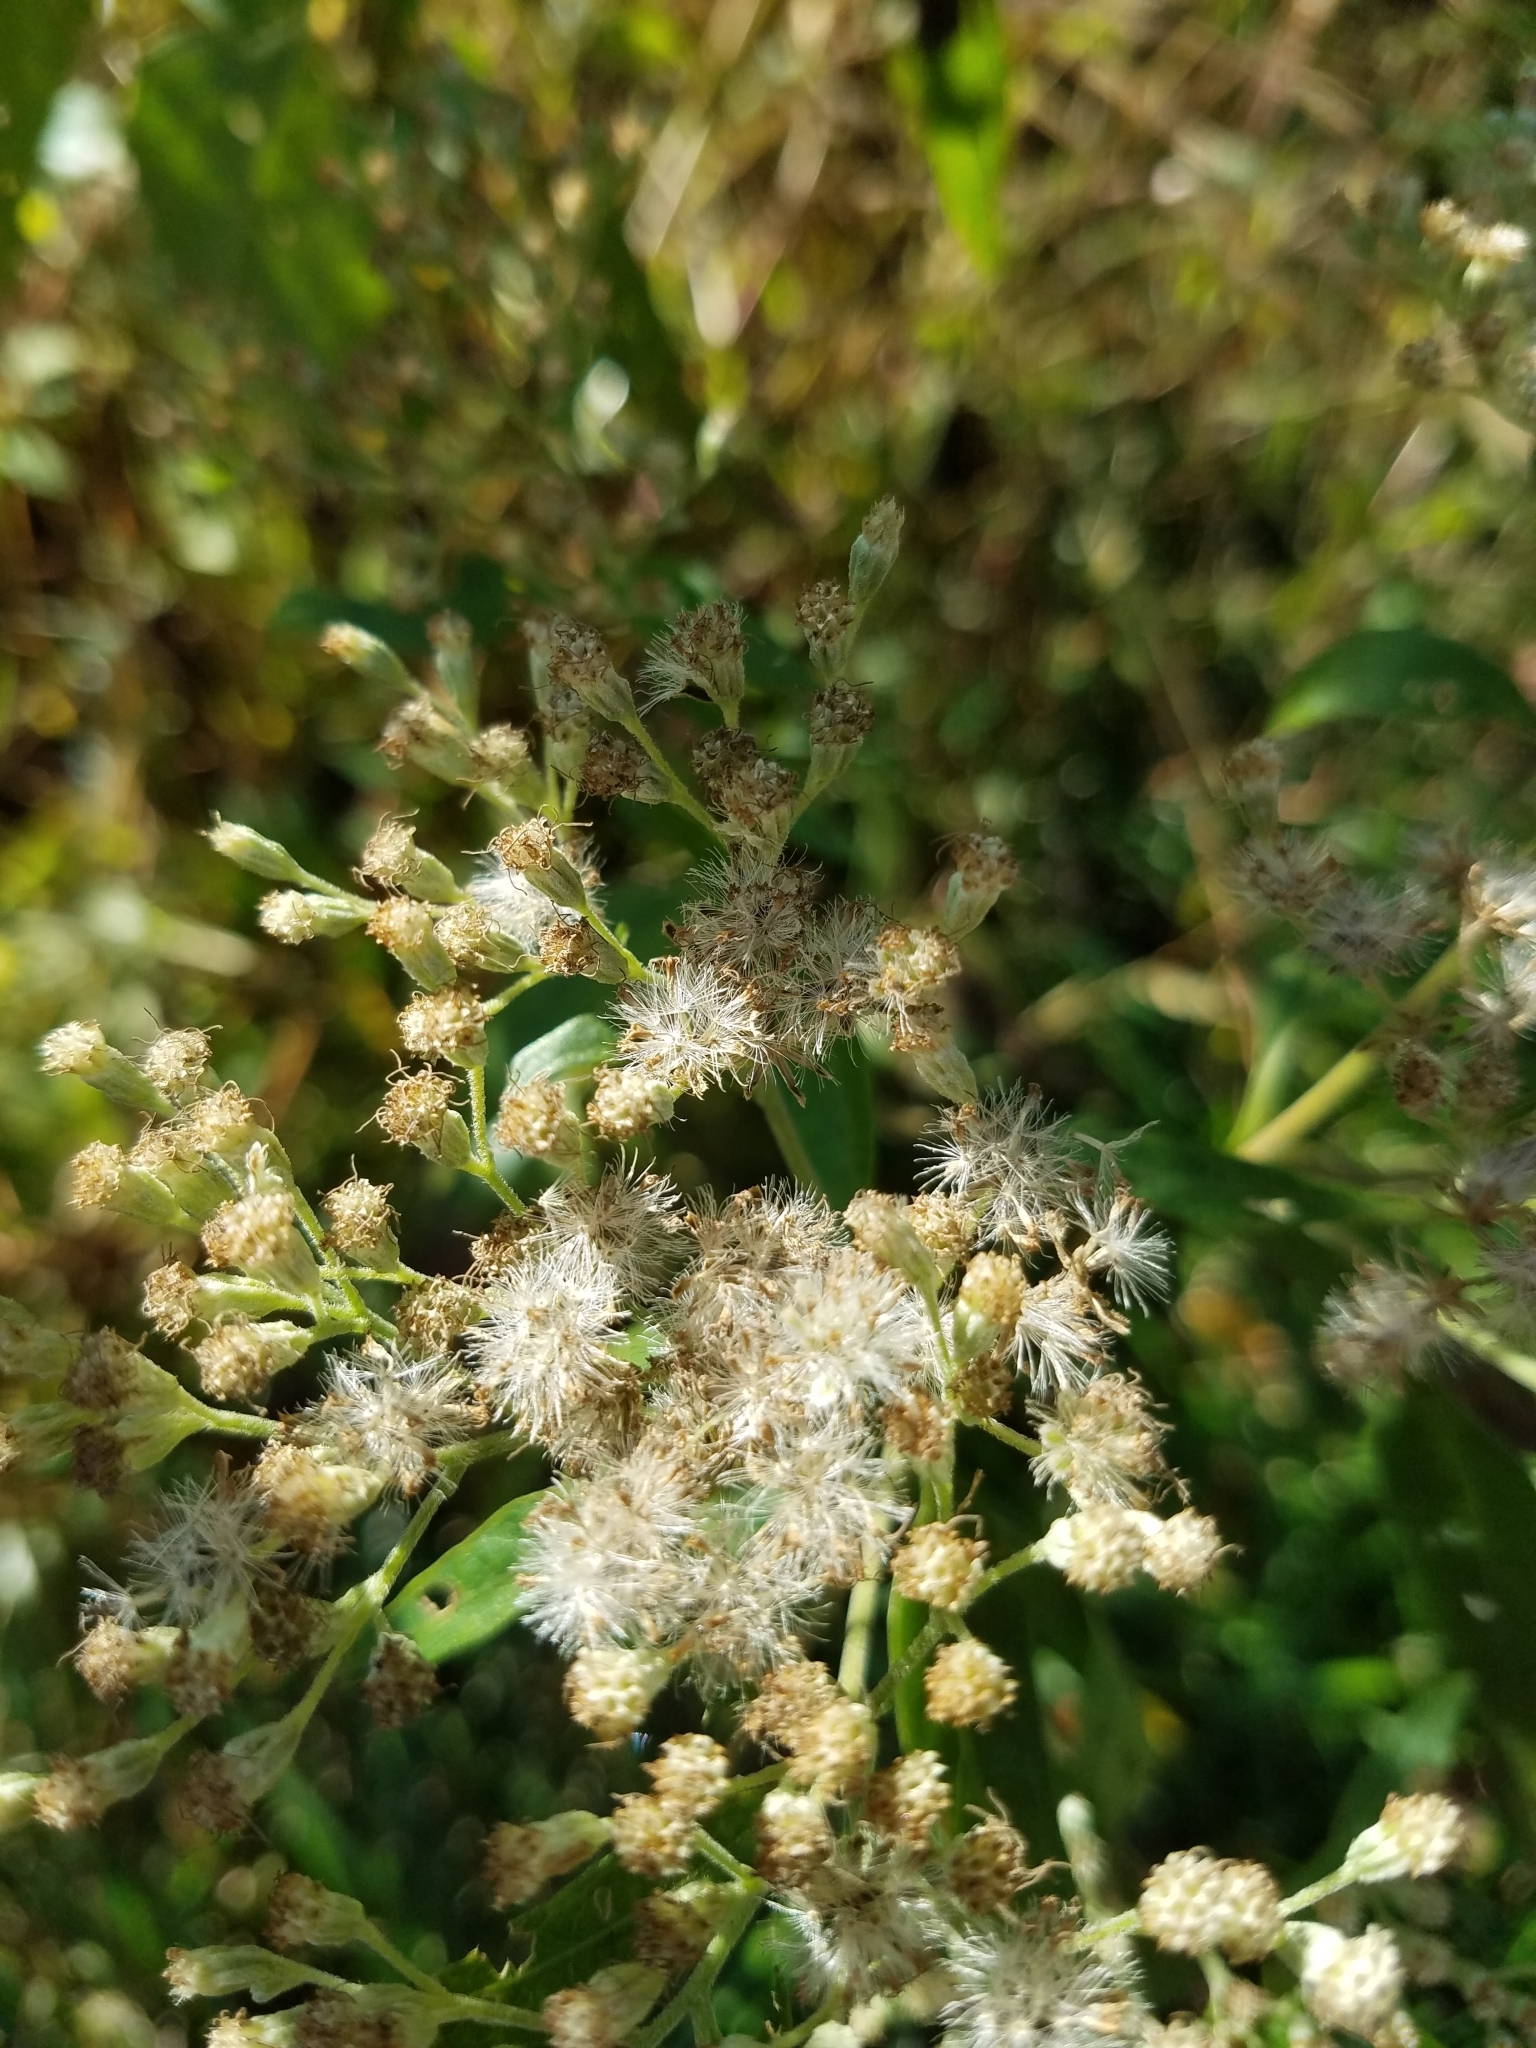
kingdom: Plantae
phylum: Tracheophyta
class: Magnoliopsida
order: Asterales
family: Asteraceae
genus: Eupatorium
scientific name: Eupatorium serotinum
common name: Late boneset
